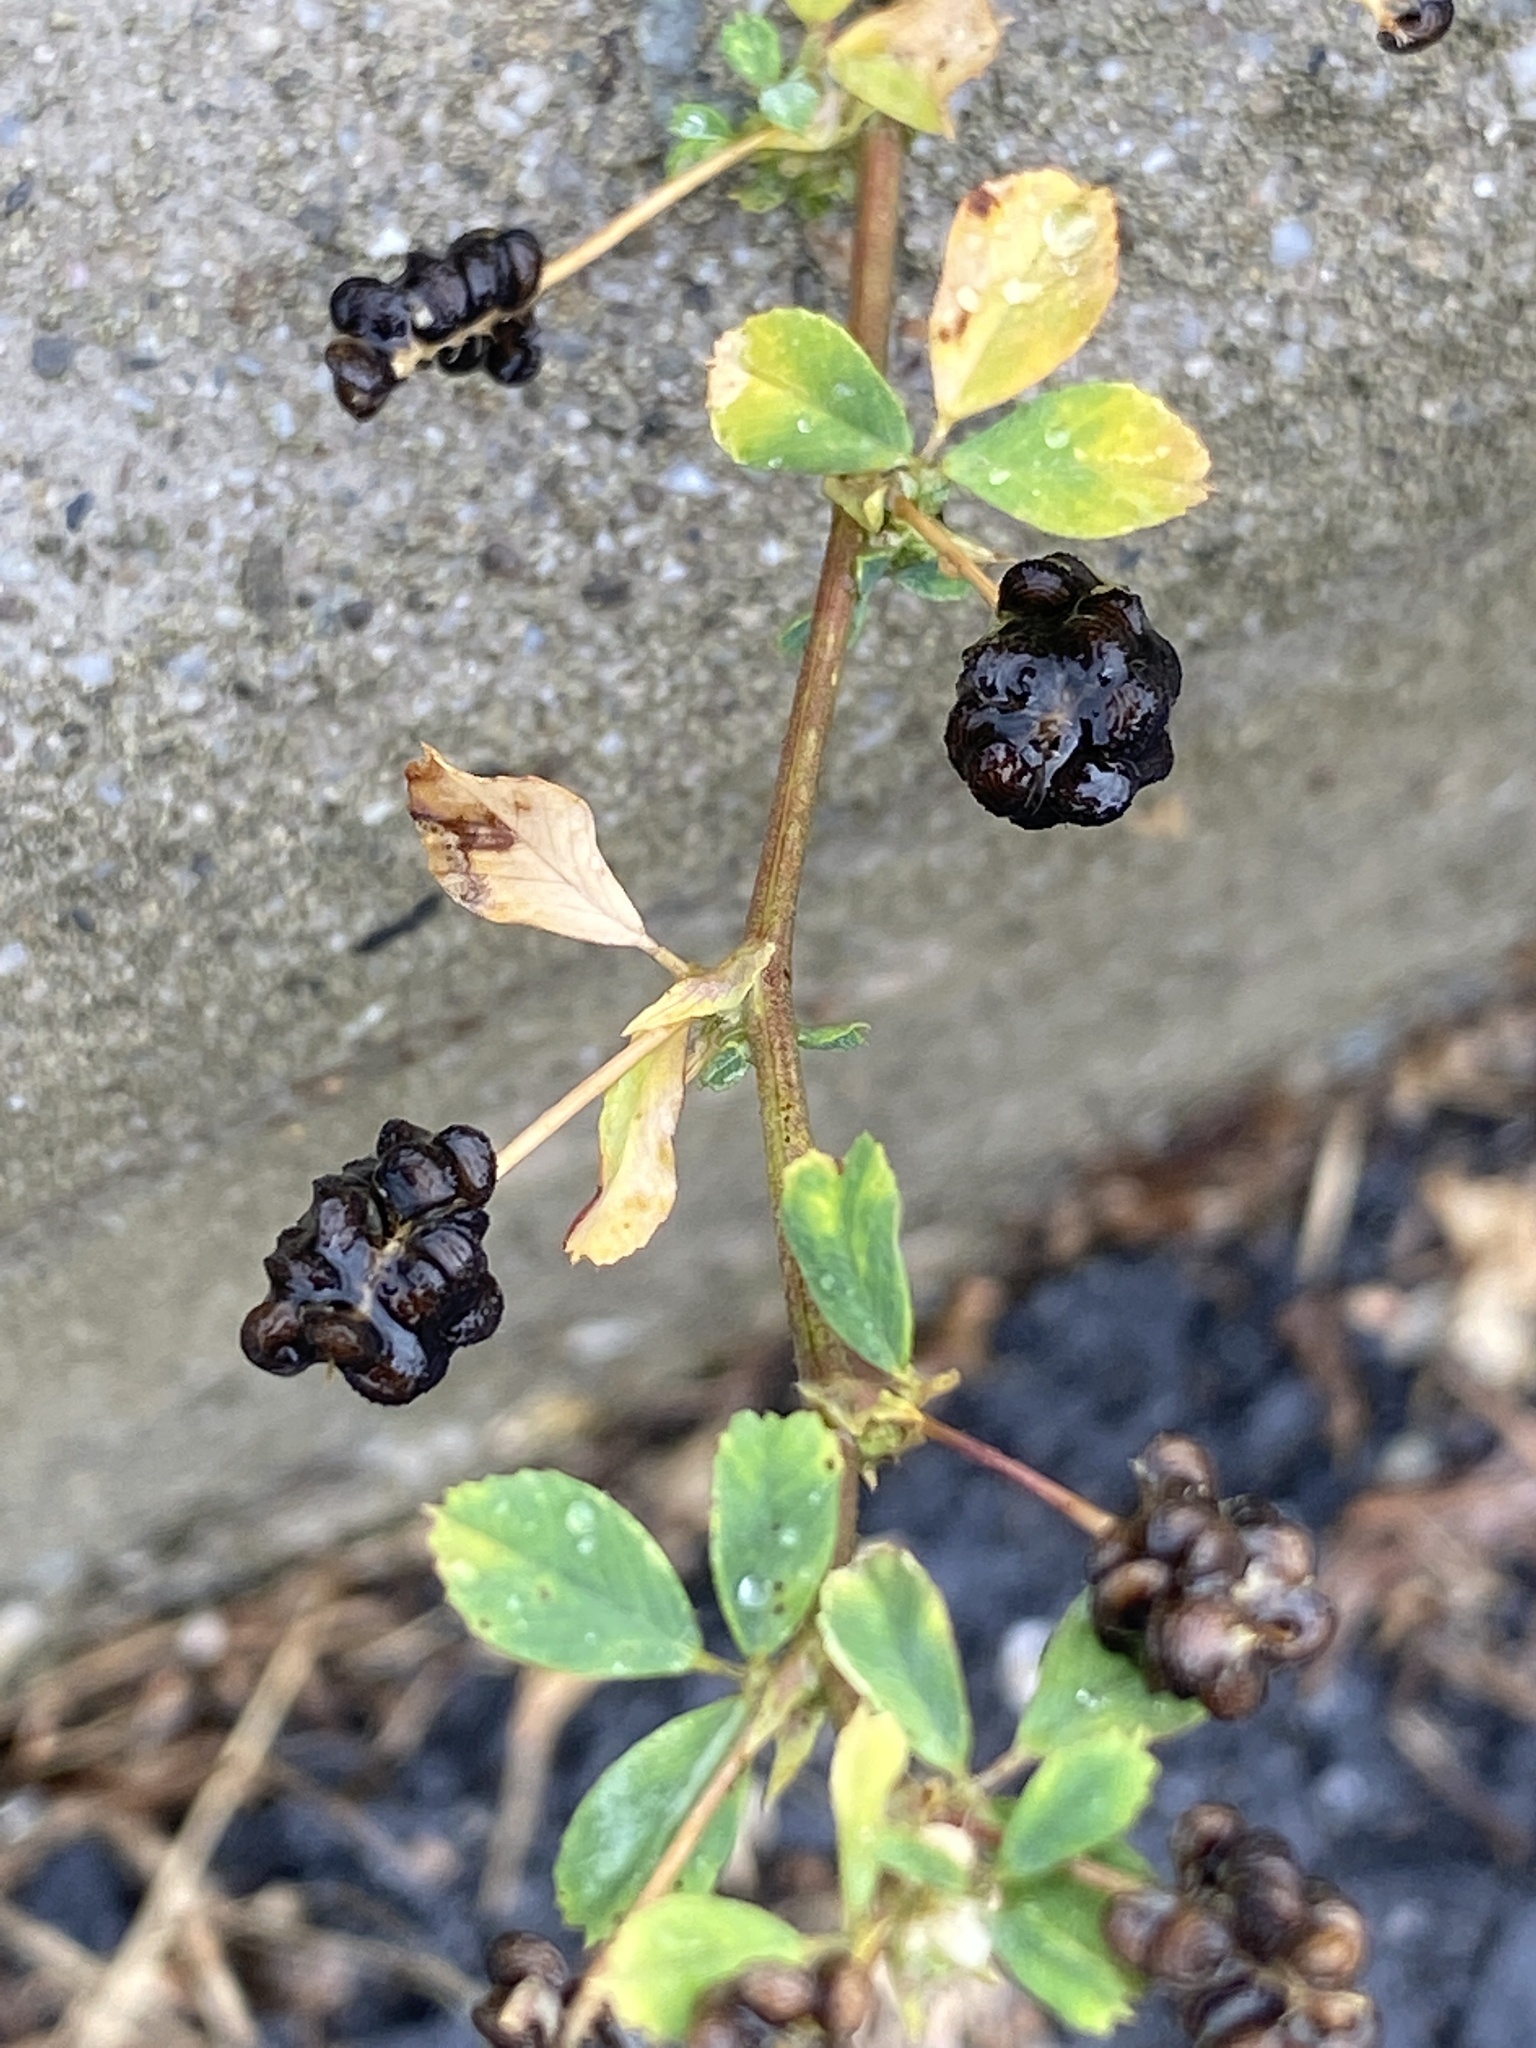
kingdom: Plantae
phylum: Tracheophyta
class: Magnoliopsida
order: Fabales
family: Fabaceae
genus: Medicago
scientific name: Medicago lupulina
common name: Black medick
